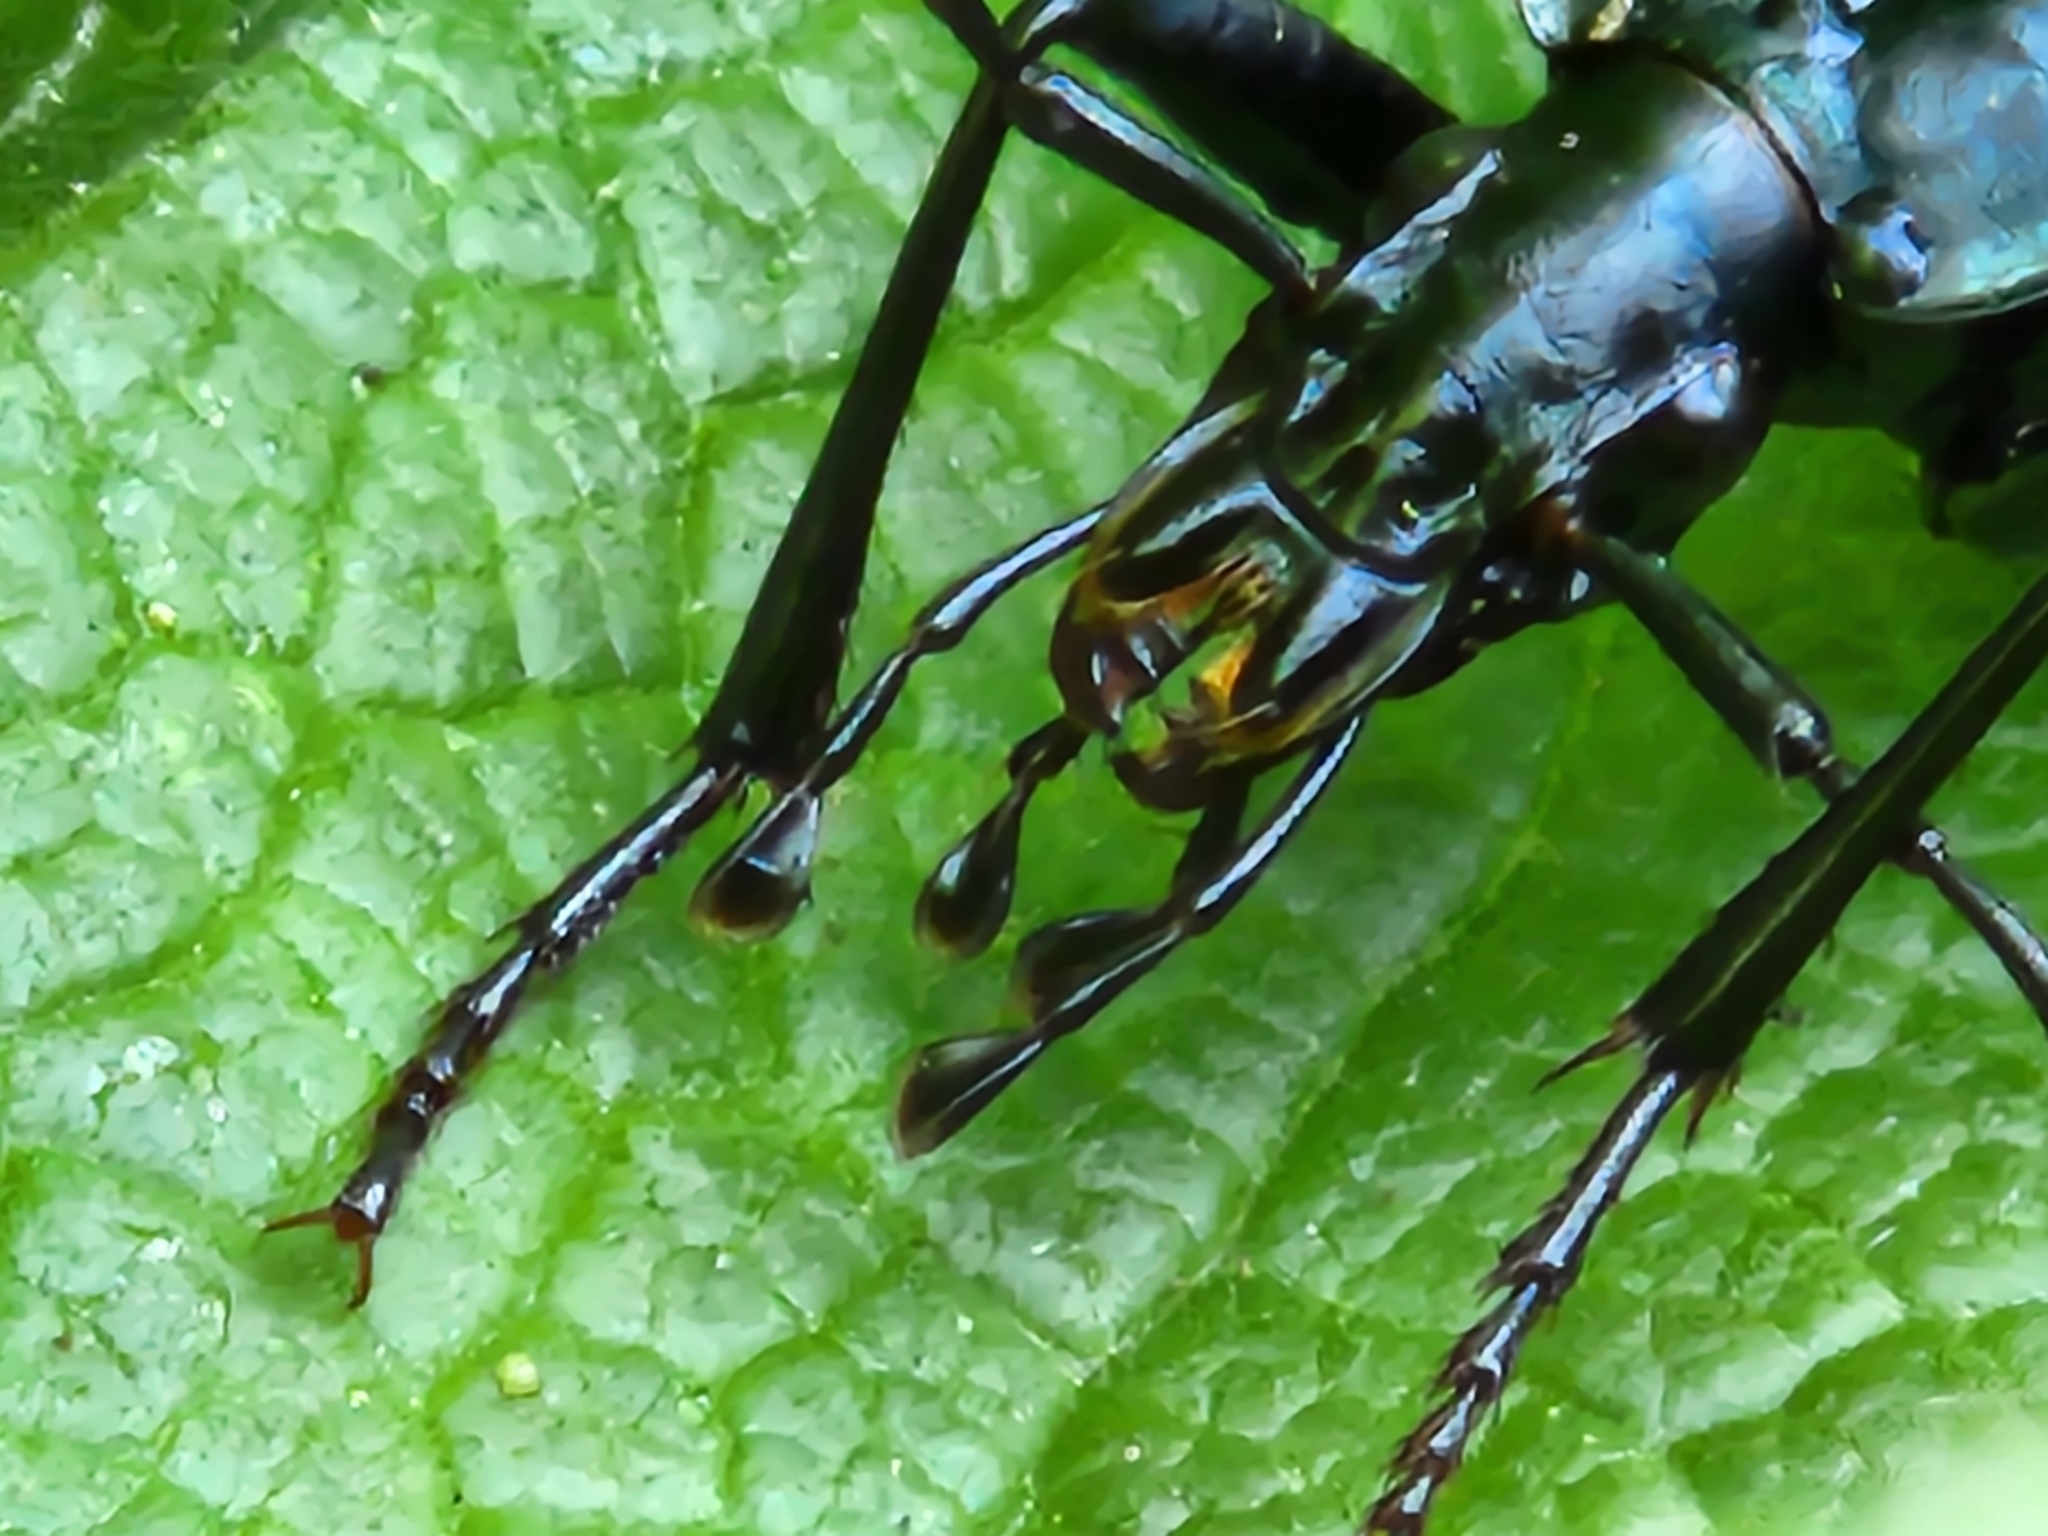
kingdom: Animalia
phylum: Arthropoda
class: Insecta
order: Coleoptera
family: Carabidae
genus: Scaphinotus
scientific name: Scaphinotus angusticollis
